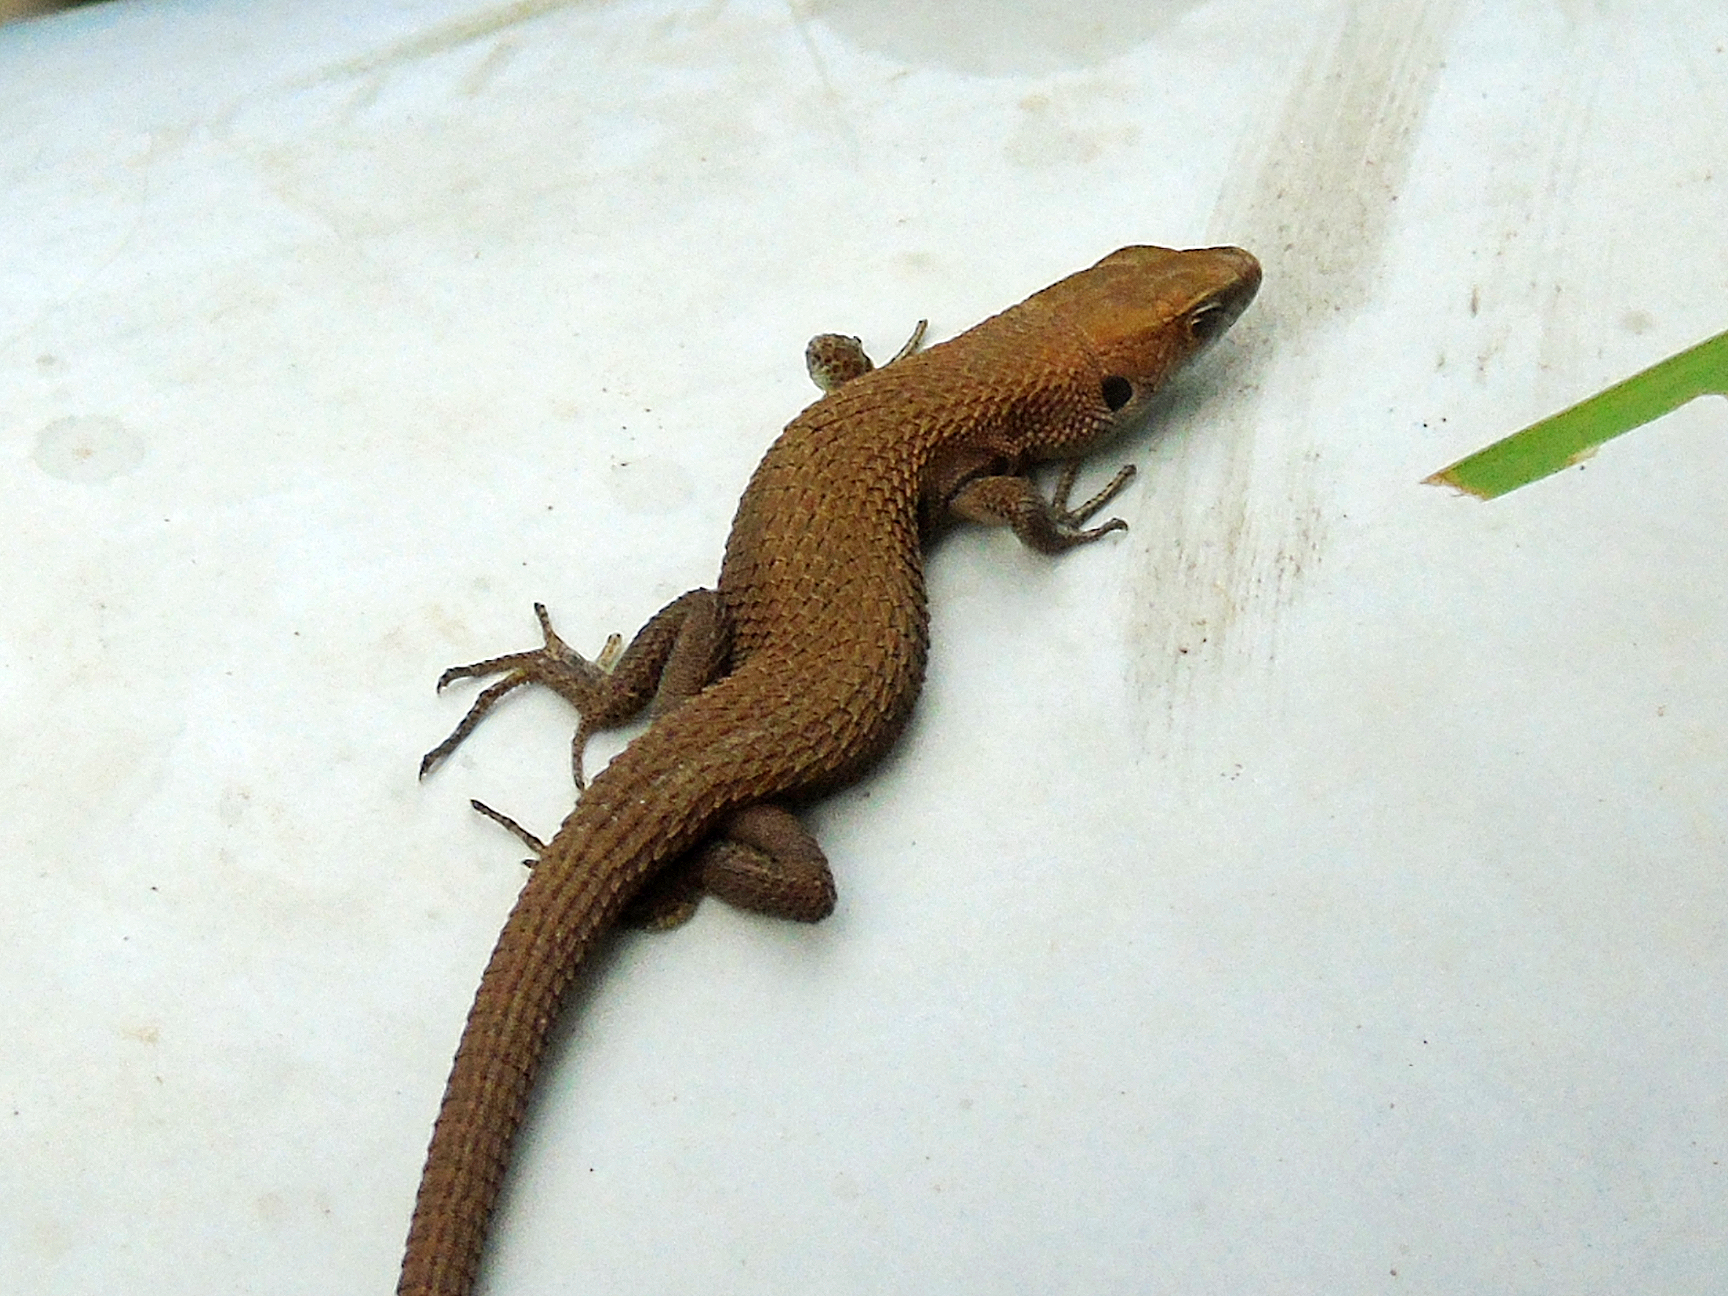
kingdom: Animalia
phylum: Chordata
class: Squamata
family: Lacertidae
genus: Algyroides
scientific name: Algyroides moreoticus
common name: Greek algyroides
